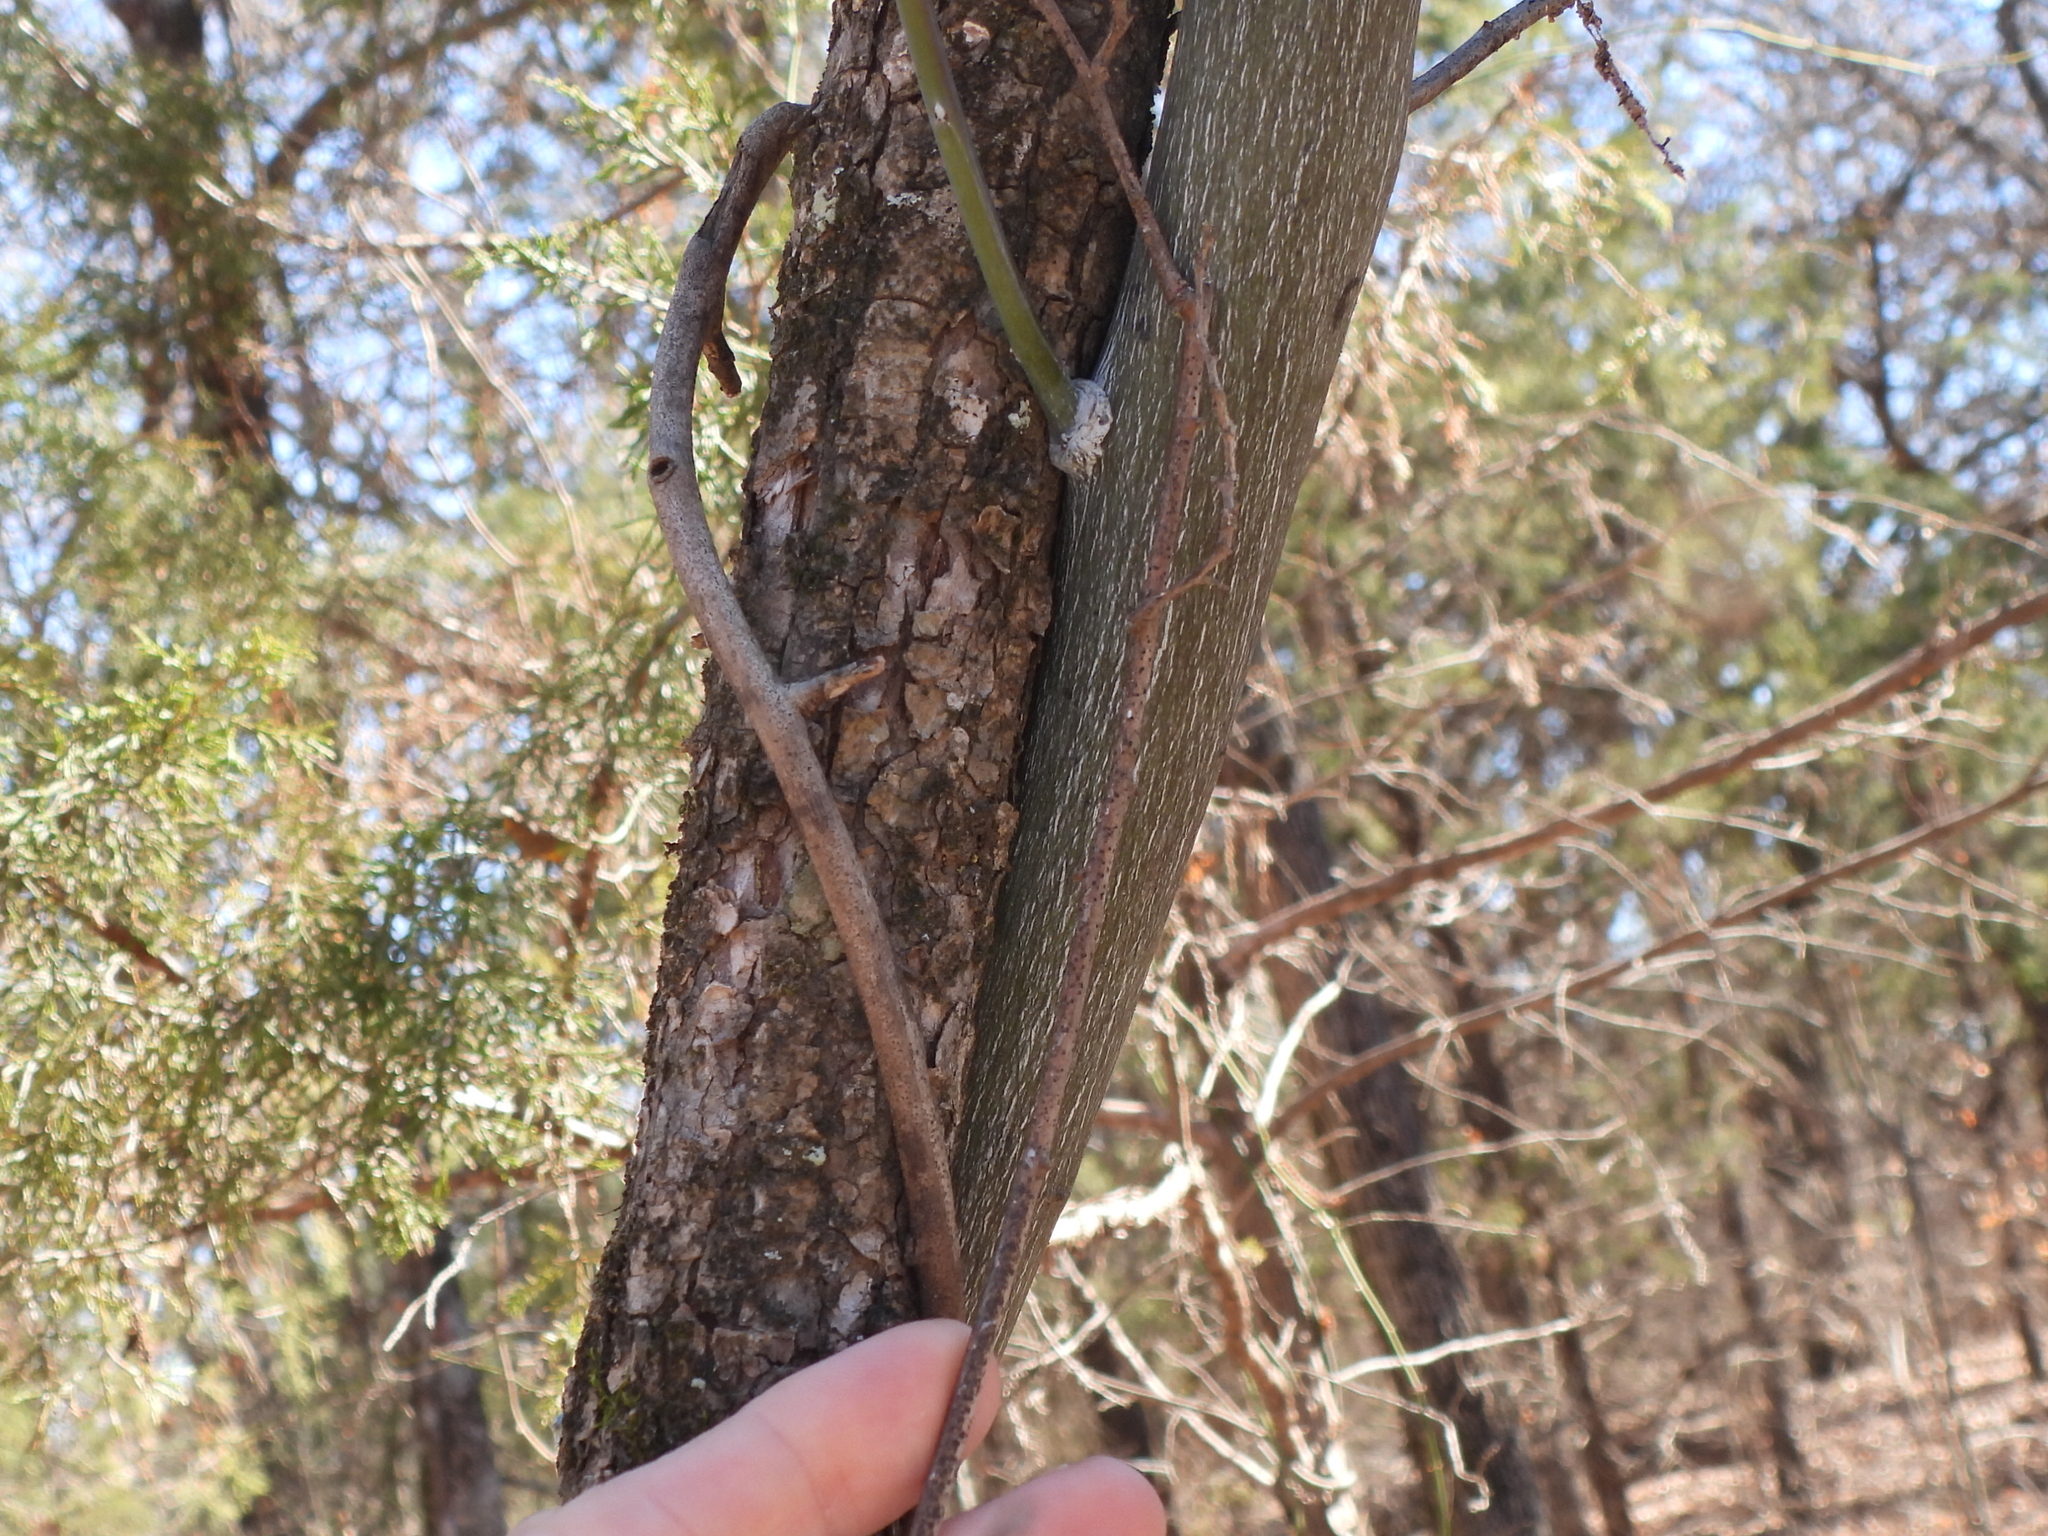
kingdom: Plantae
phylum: Tracheophyta
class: Magnoliopsida
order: Rosales
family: Rhamnaceae
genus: Berchemia
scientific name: Berchemia scandens
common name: Supplejack
